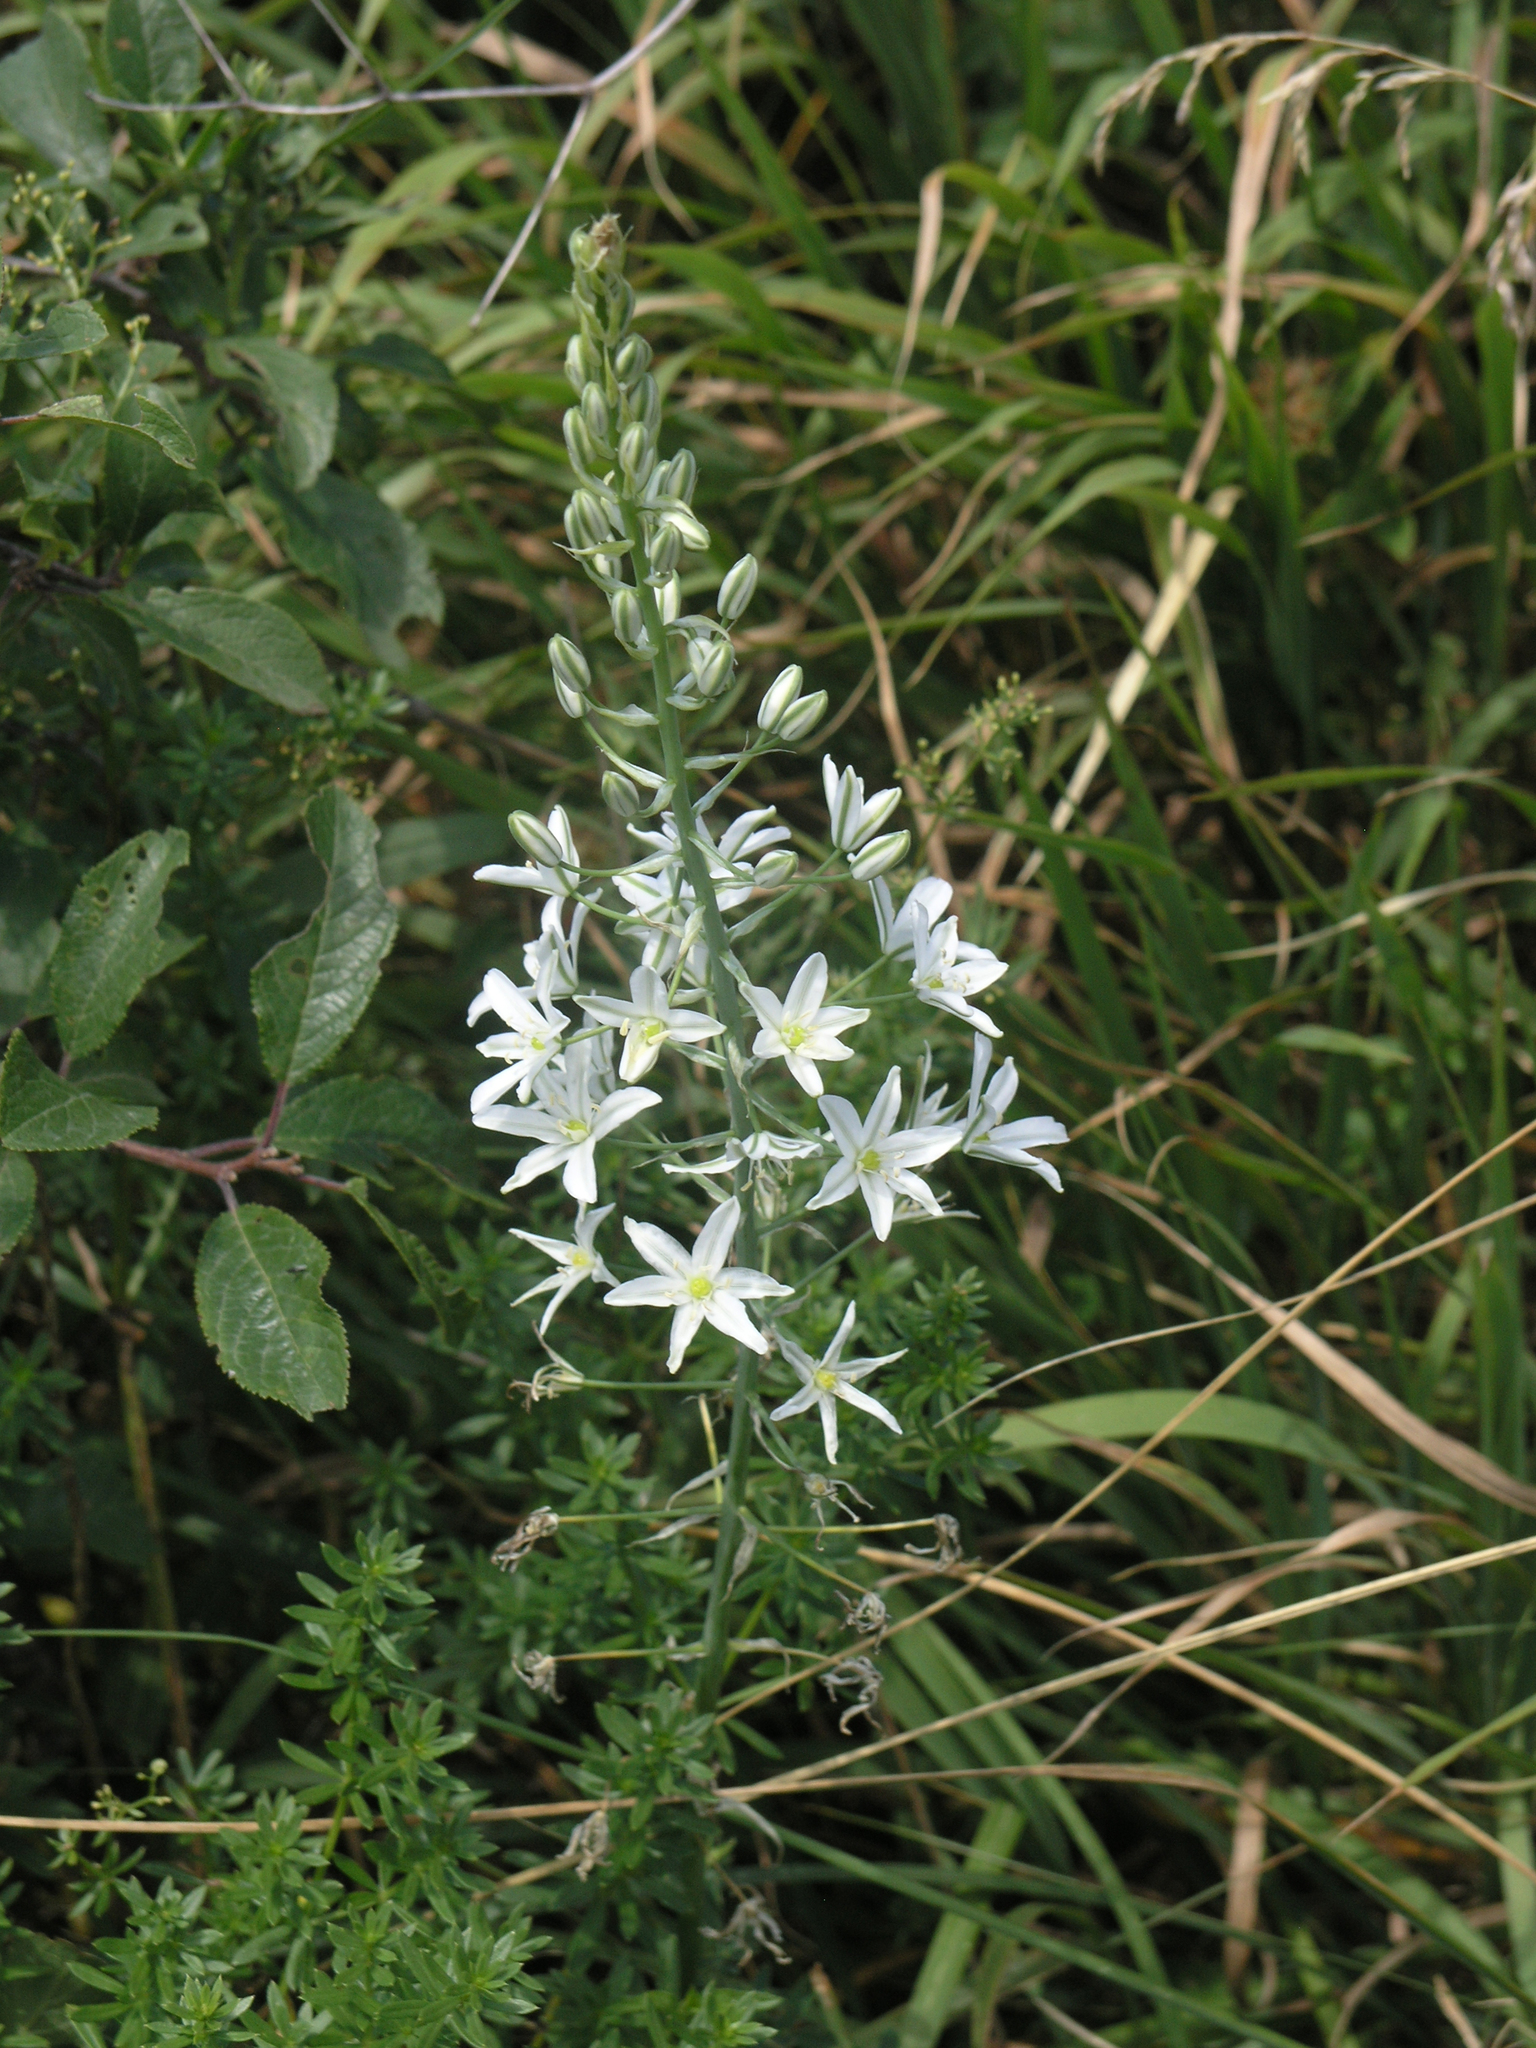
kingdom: Plantae
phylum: Tracheophyta
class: Liliopsida
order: Asparagales
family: Asparagaceae
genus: Ornithogalum
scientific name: Ornithogalum ponticum
